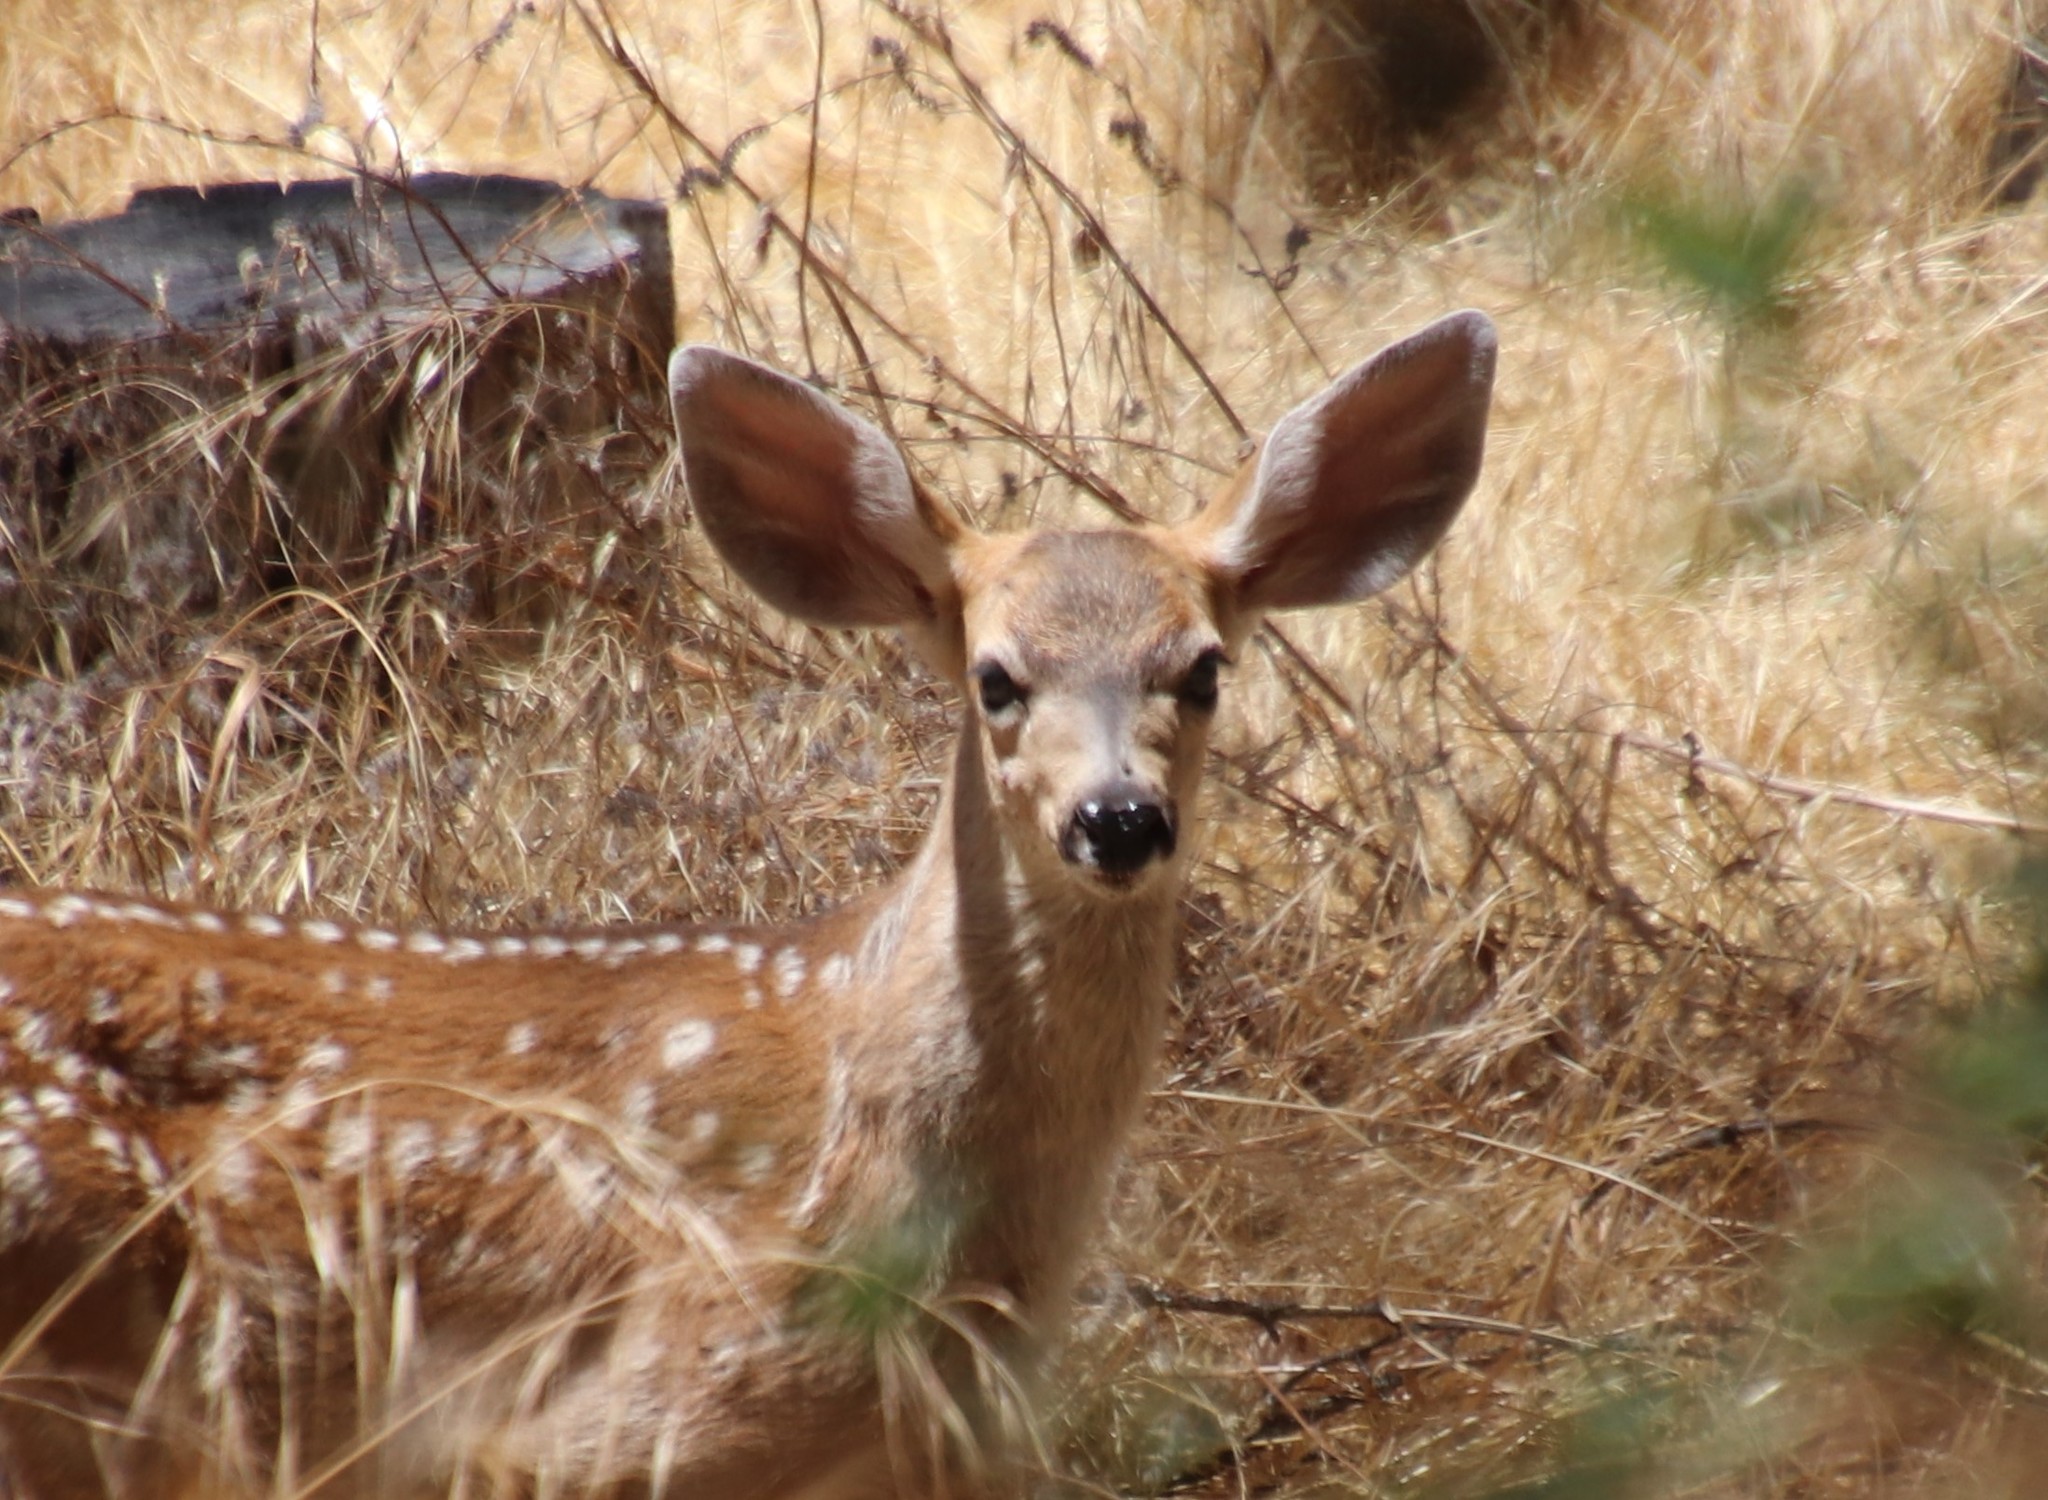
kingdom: Animalia
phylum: Chordata
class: Mammalia
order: Artiodactyla
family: Cervidae
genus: Odocoileus
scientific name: Odocoileus hemionus
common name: Mule deer
